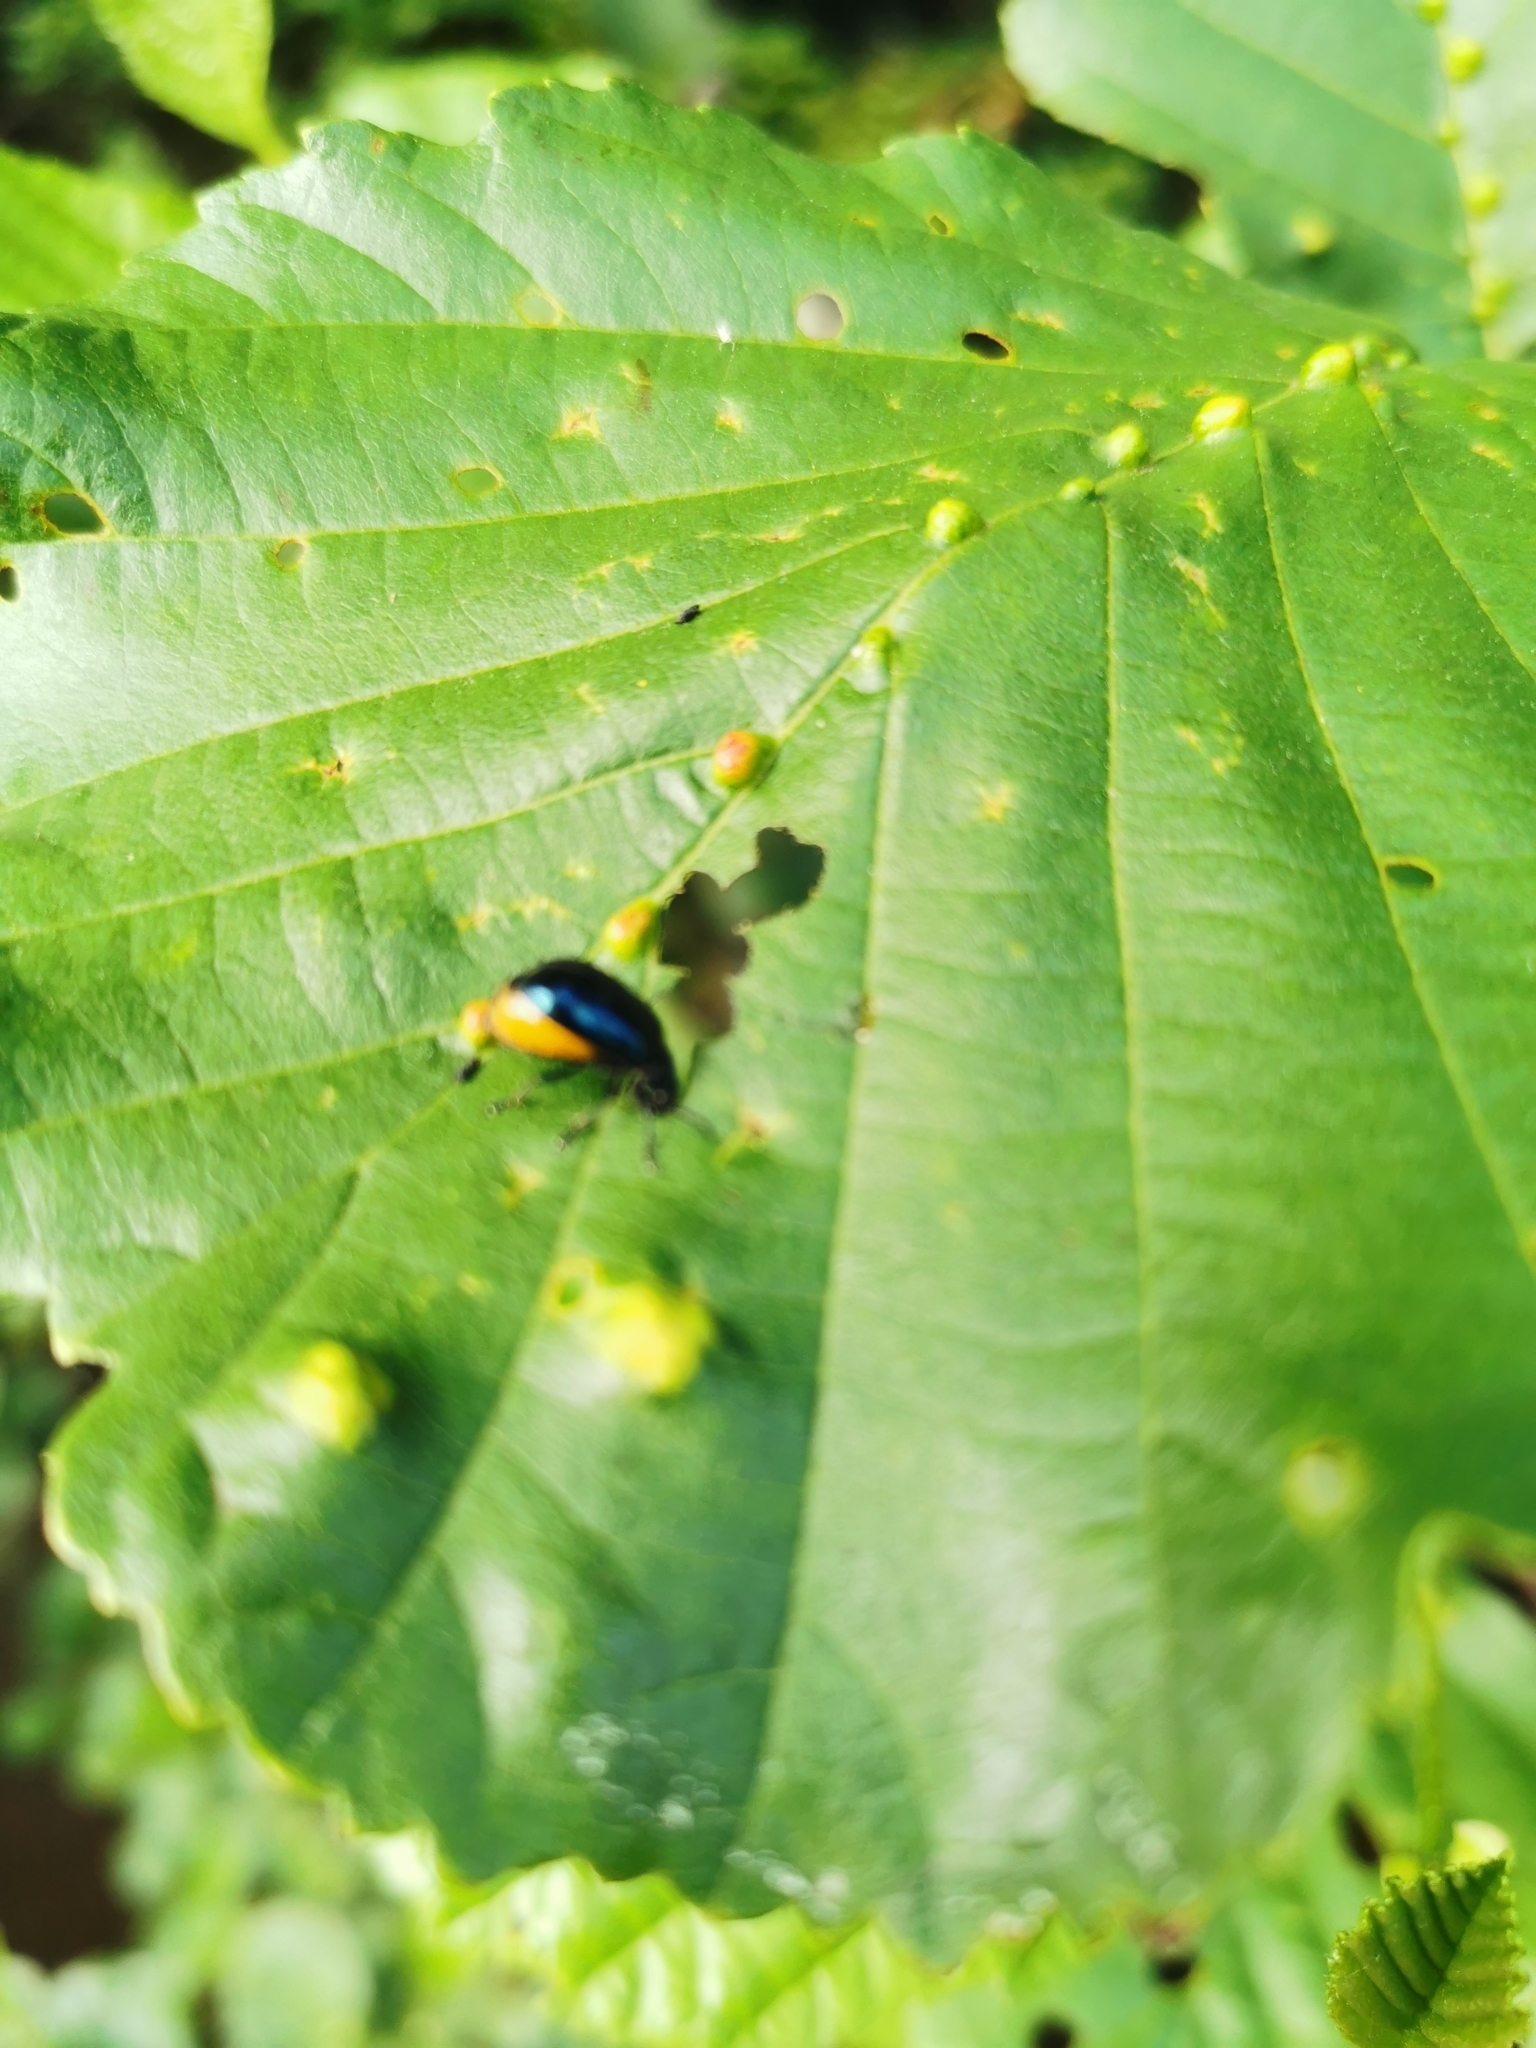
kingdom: Animalia
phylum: Arthropoda
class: Insecta
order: Coleoptera
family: Chrysomelidae
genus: Agelastica
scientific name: Agelastica alni
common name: Alder leaf beetle
